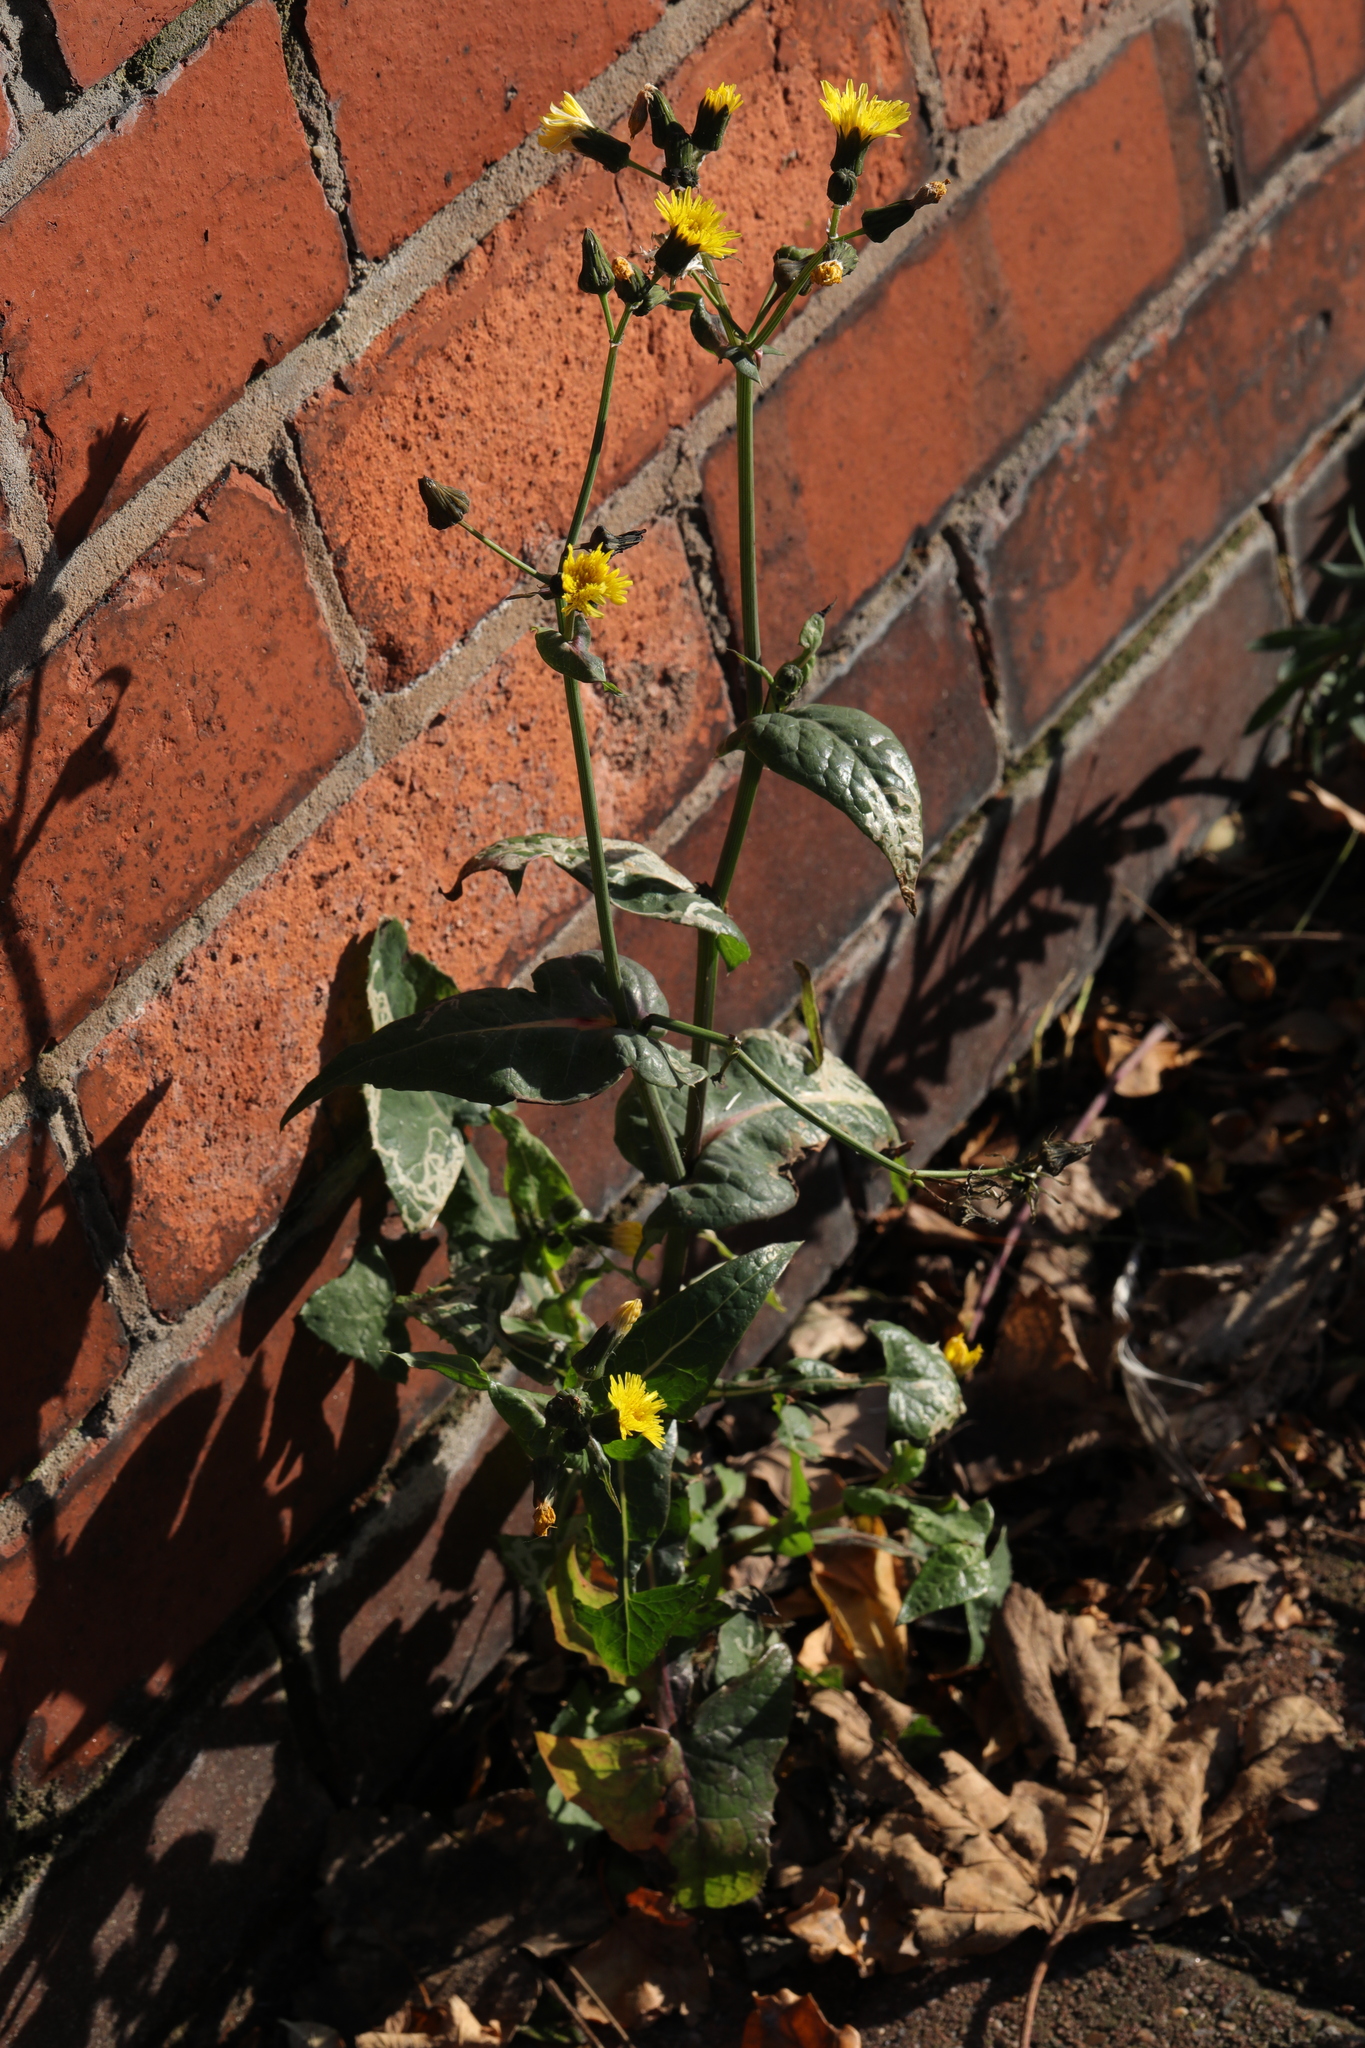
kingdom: Plantae
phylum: Tracheophyta
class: Magnoliopsida
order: Asterales
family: Asteraceae
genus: Sonchus
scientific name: Sonchus oleraceus
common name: Common sowthistle
